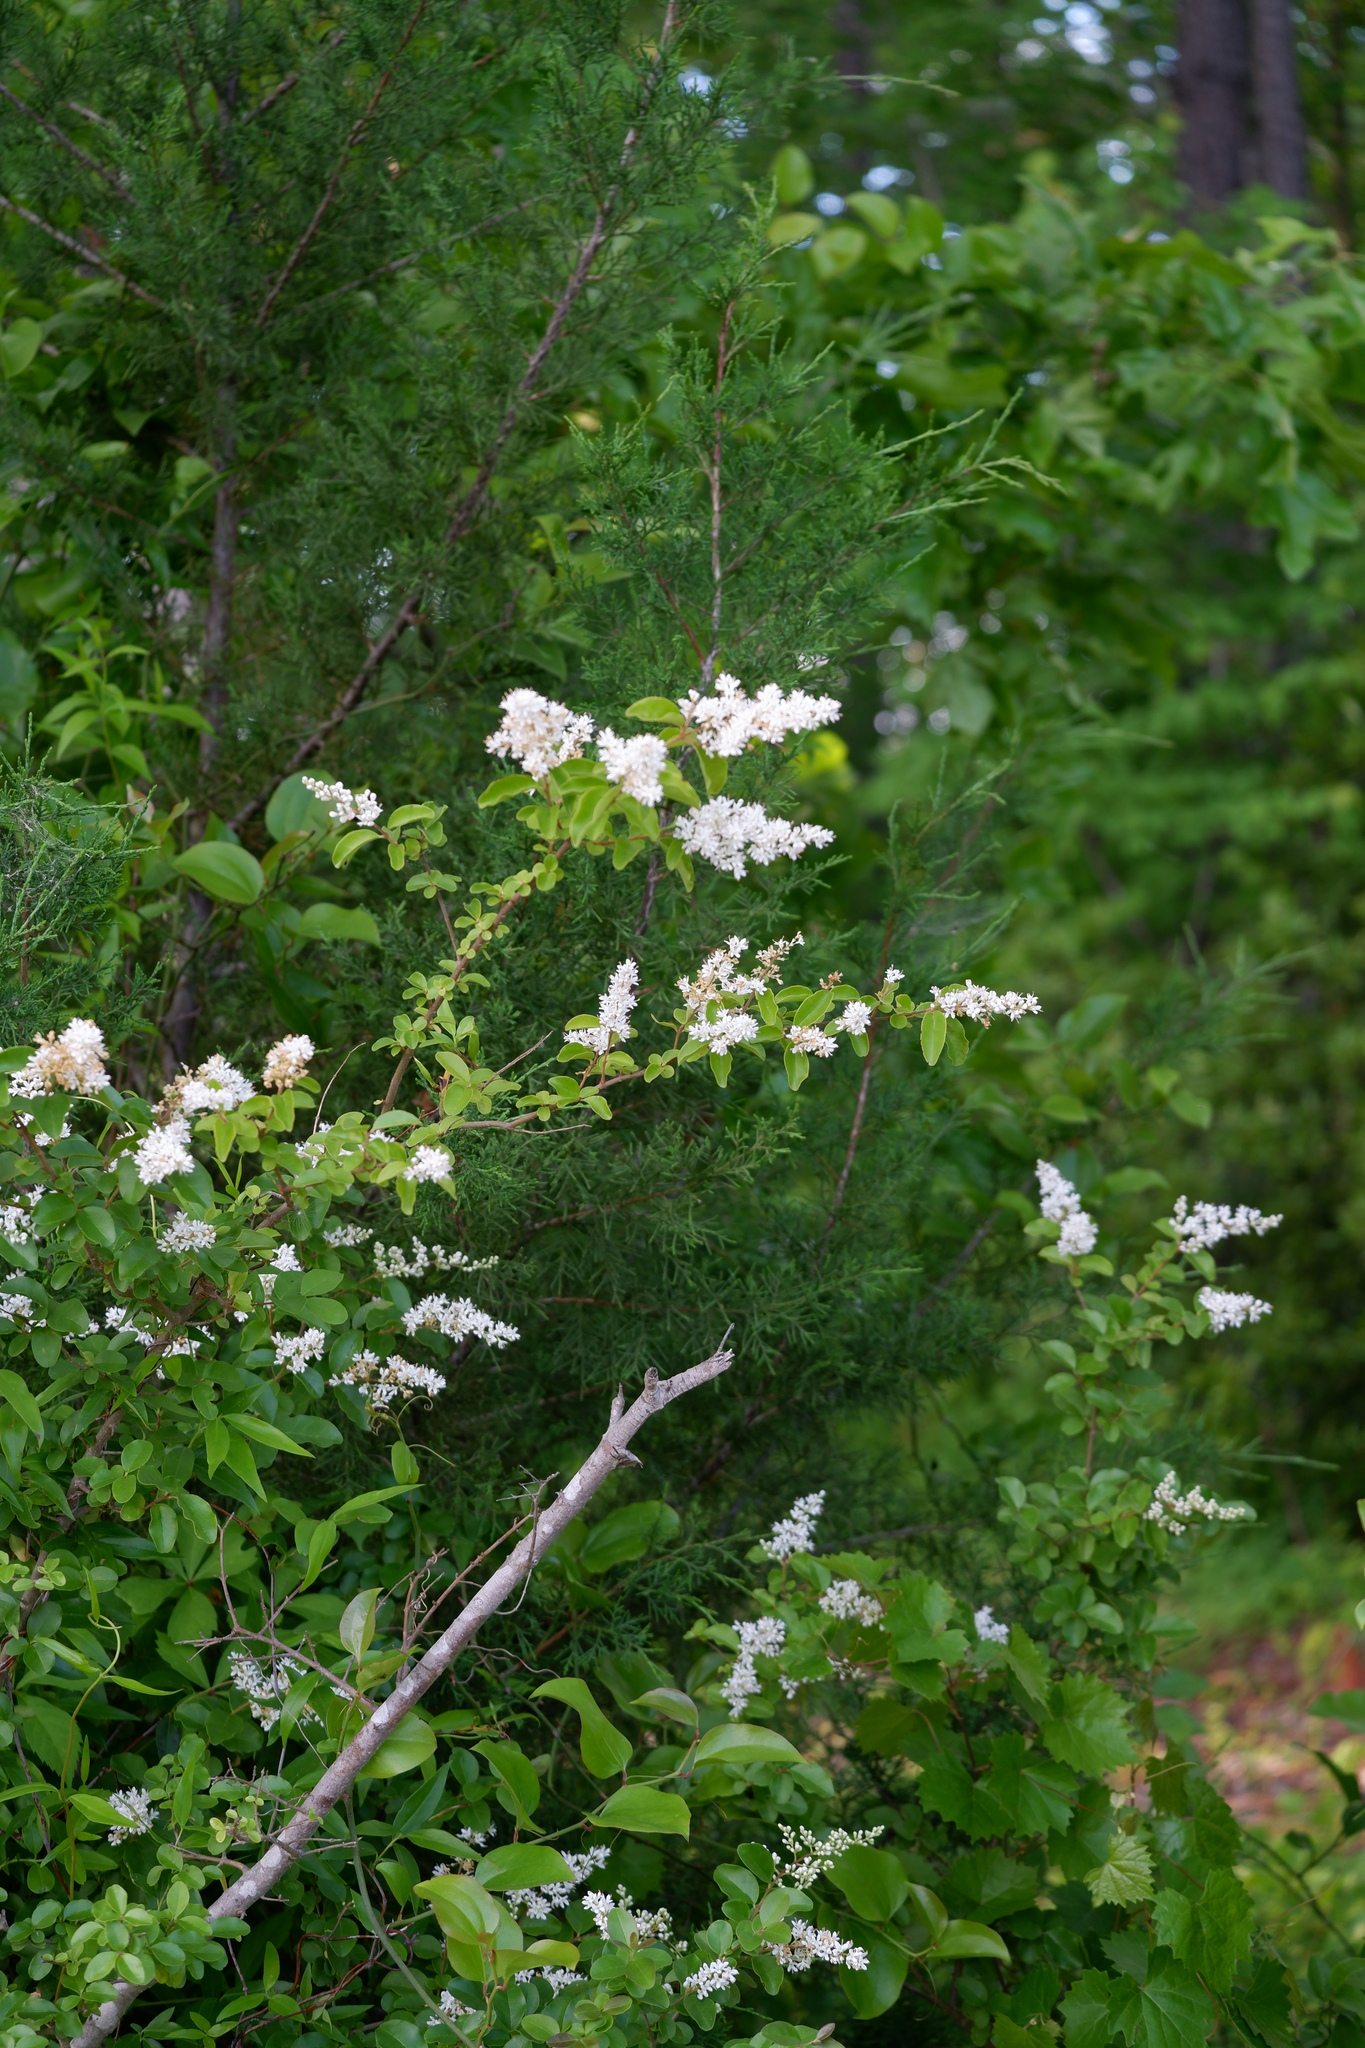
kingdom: Plantae
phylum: Tracheophyta
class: Magnoliopsida
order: Lamiales
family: Oleaceae
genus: Ligustrum
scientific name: Ligustrum sinense
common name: Chinese privet
